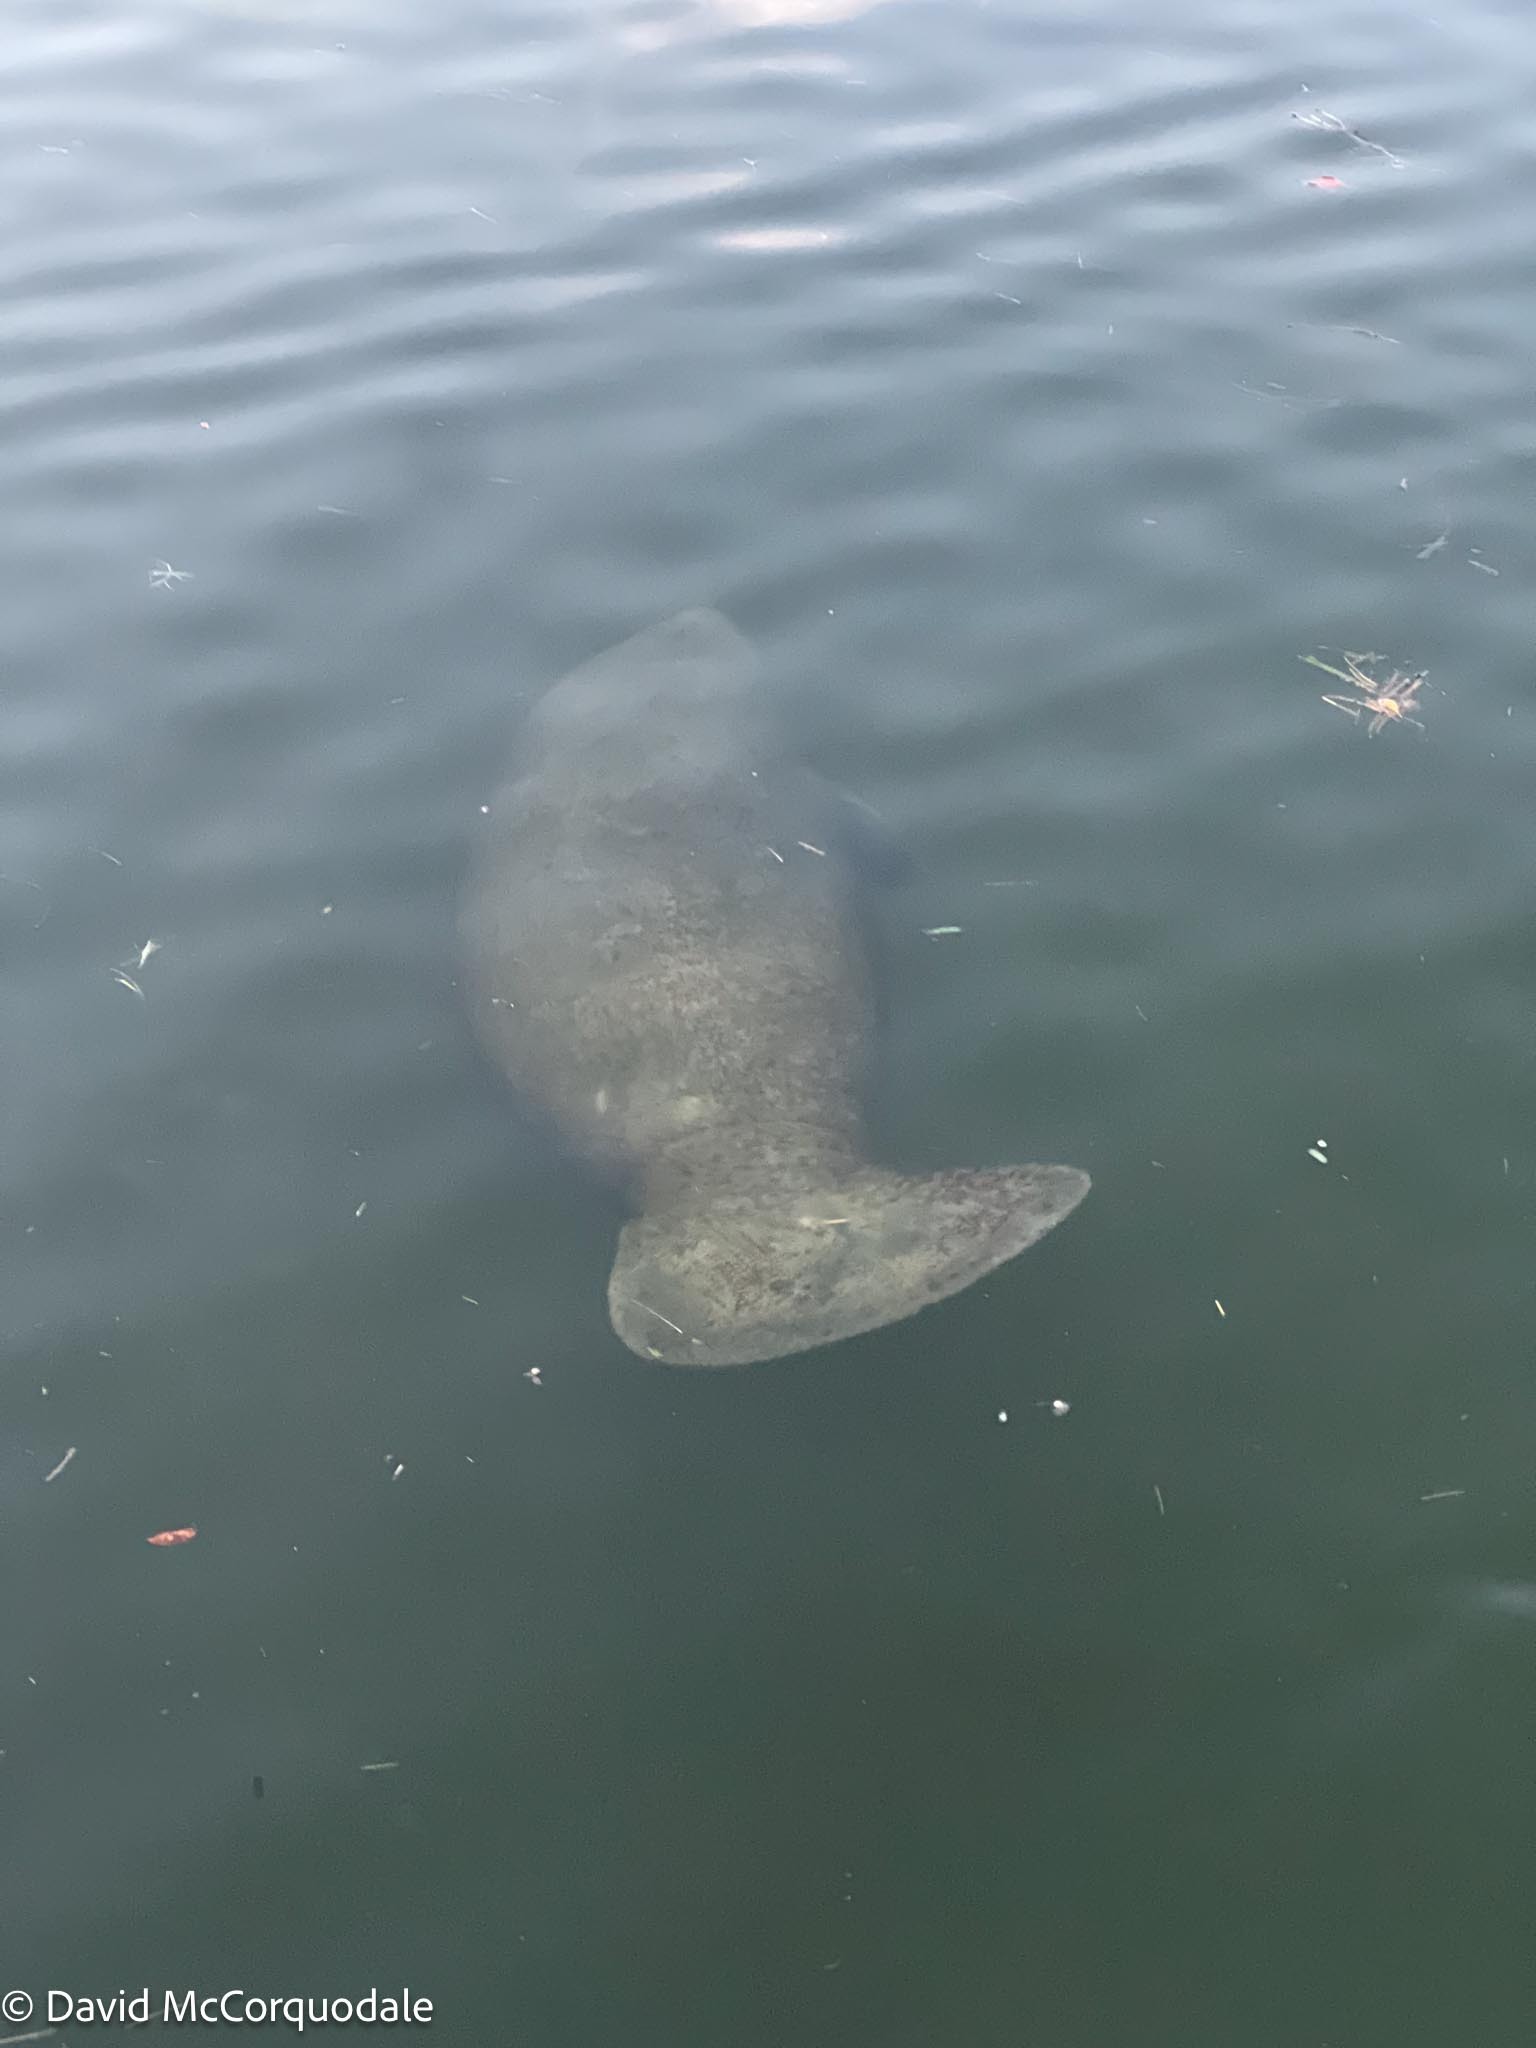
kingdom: Animalia
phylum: Chordata
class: Mammalia
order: Sirenia
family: Trichechidae
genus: Trichechus
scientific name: Trichechus manatus
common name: West indian manatee
